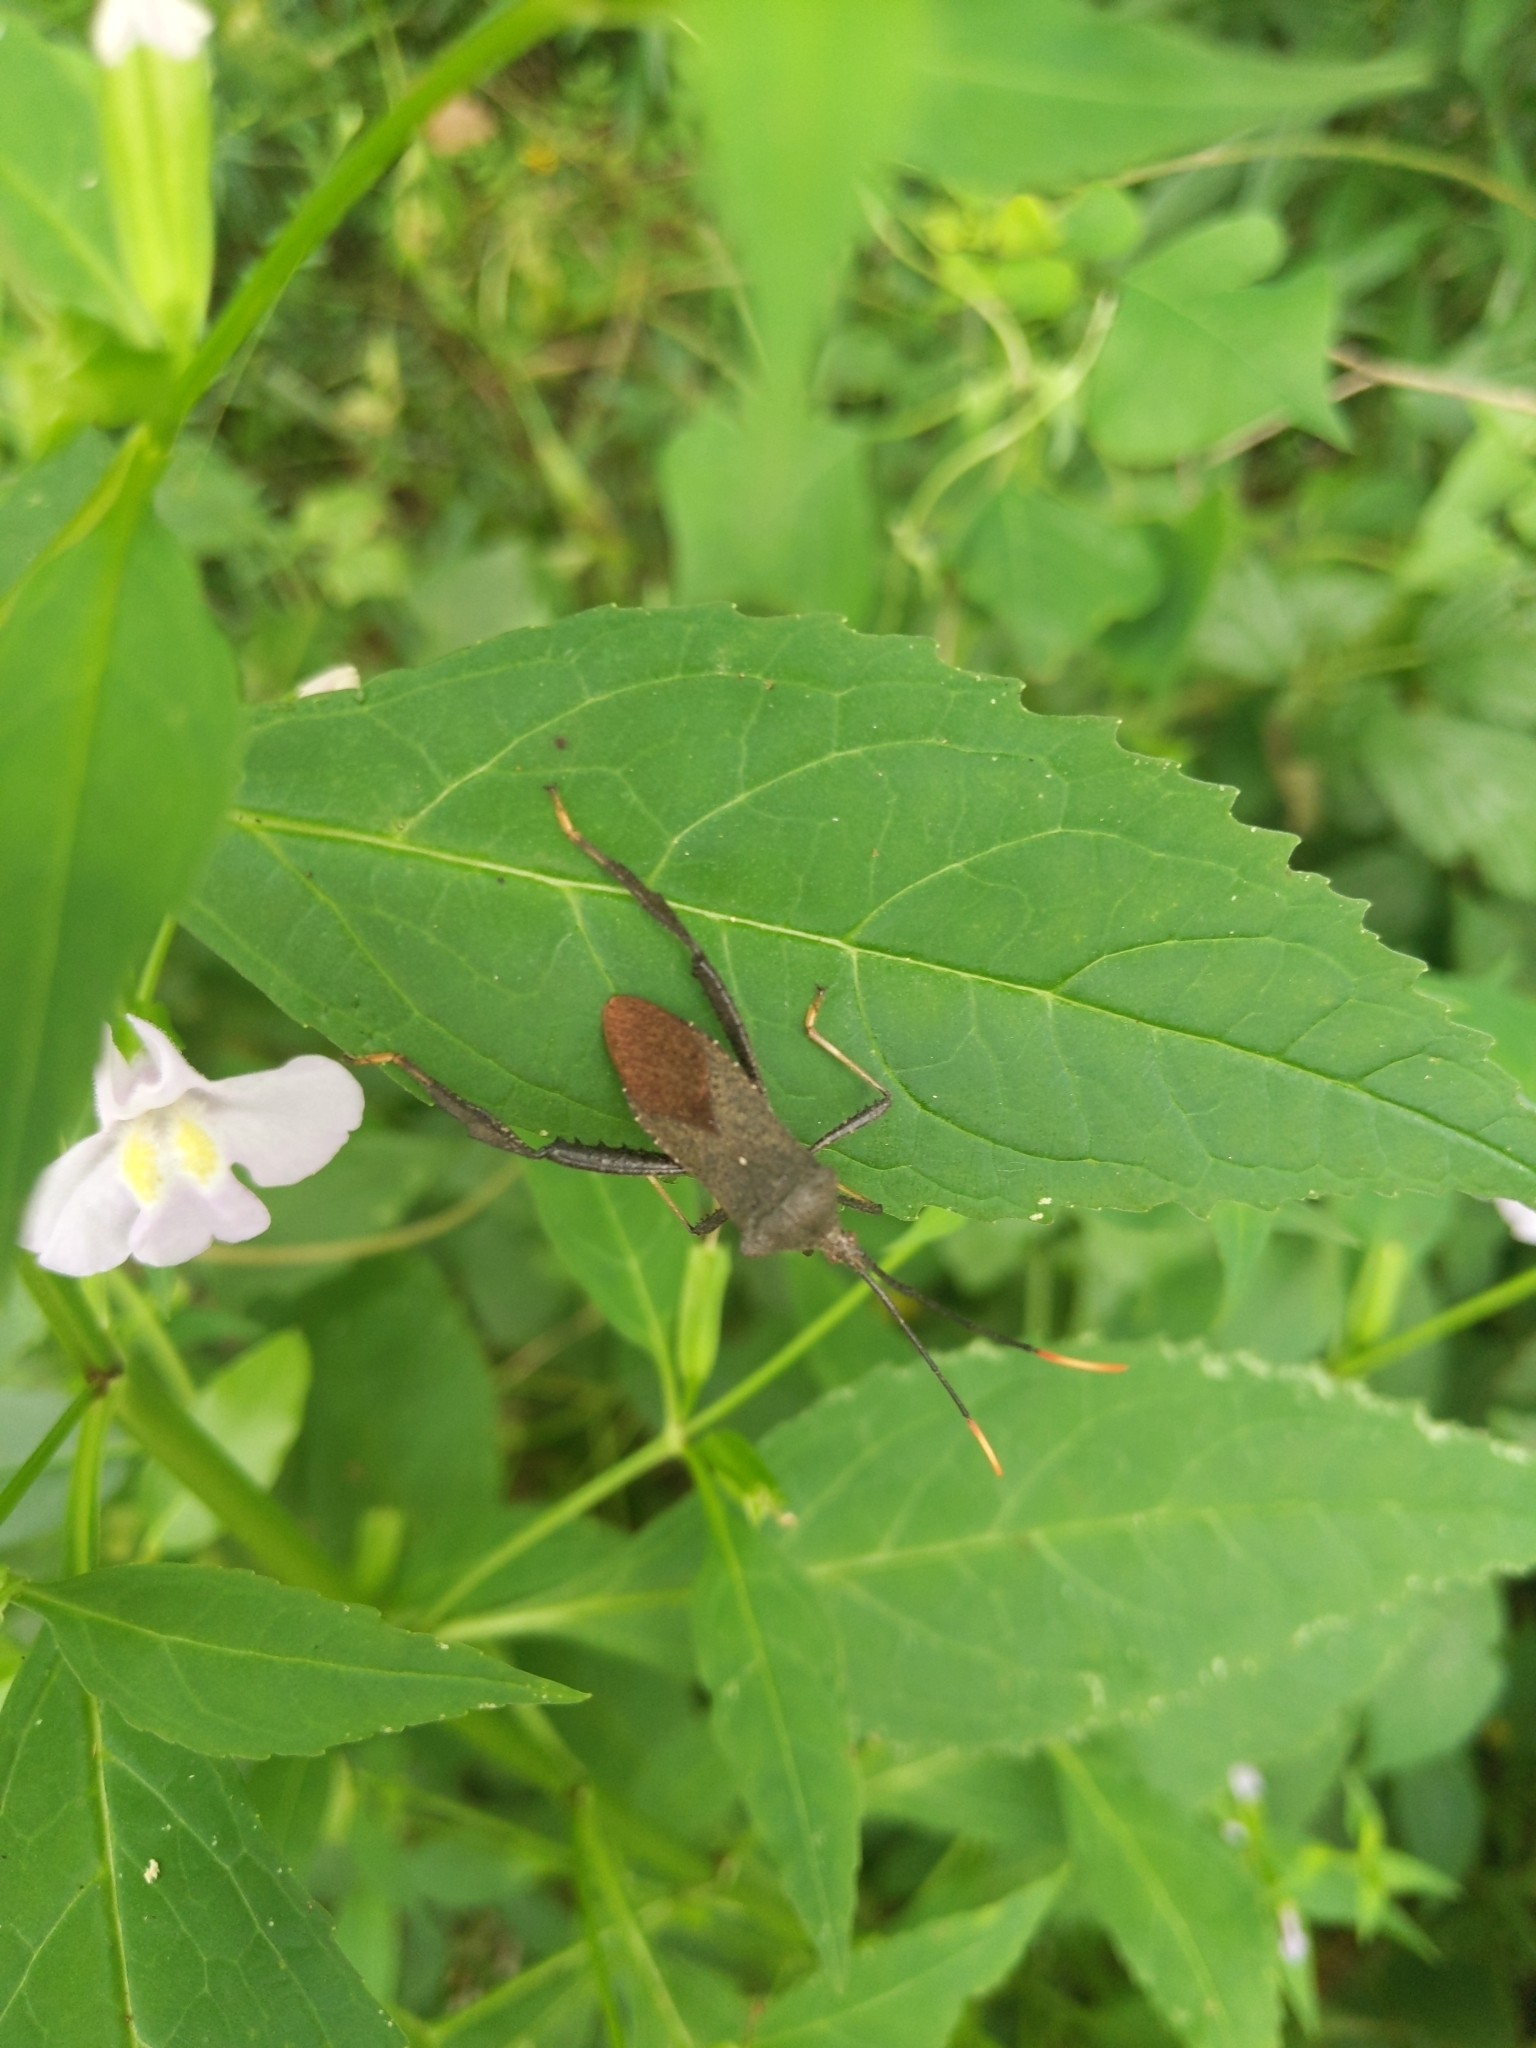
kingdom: Animalia
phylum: Arthropoda
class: Insecta
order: Hemiptera
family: Coreidae
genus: Acanthocephala
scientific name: Acanthocephala terminalis
